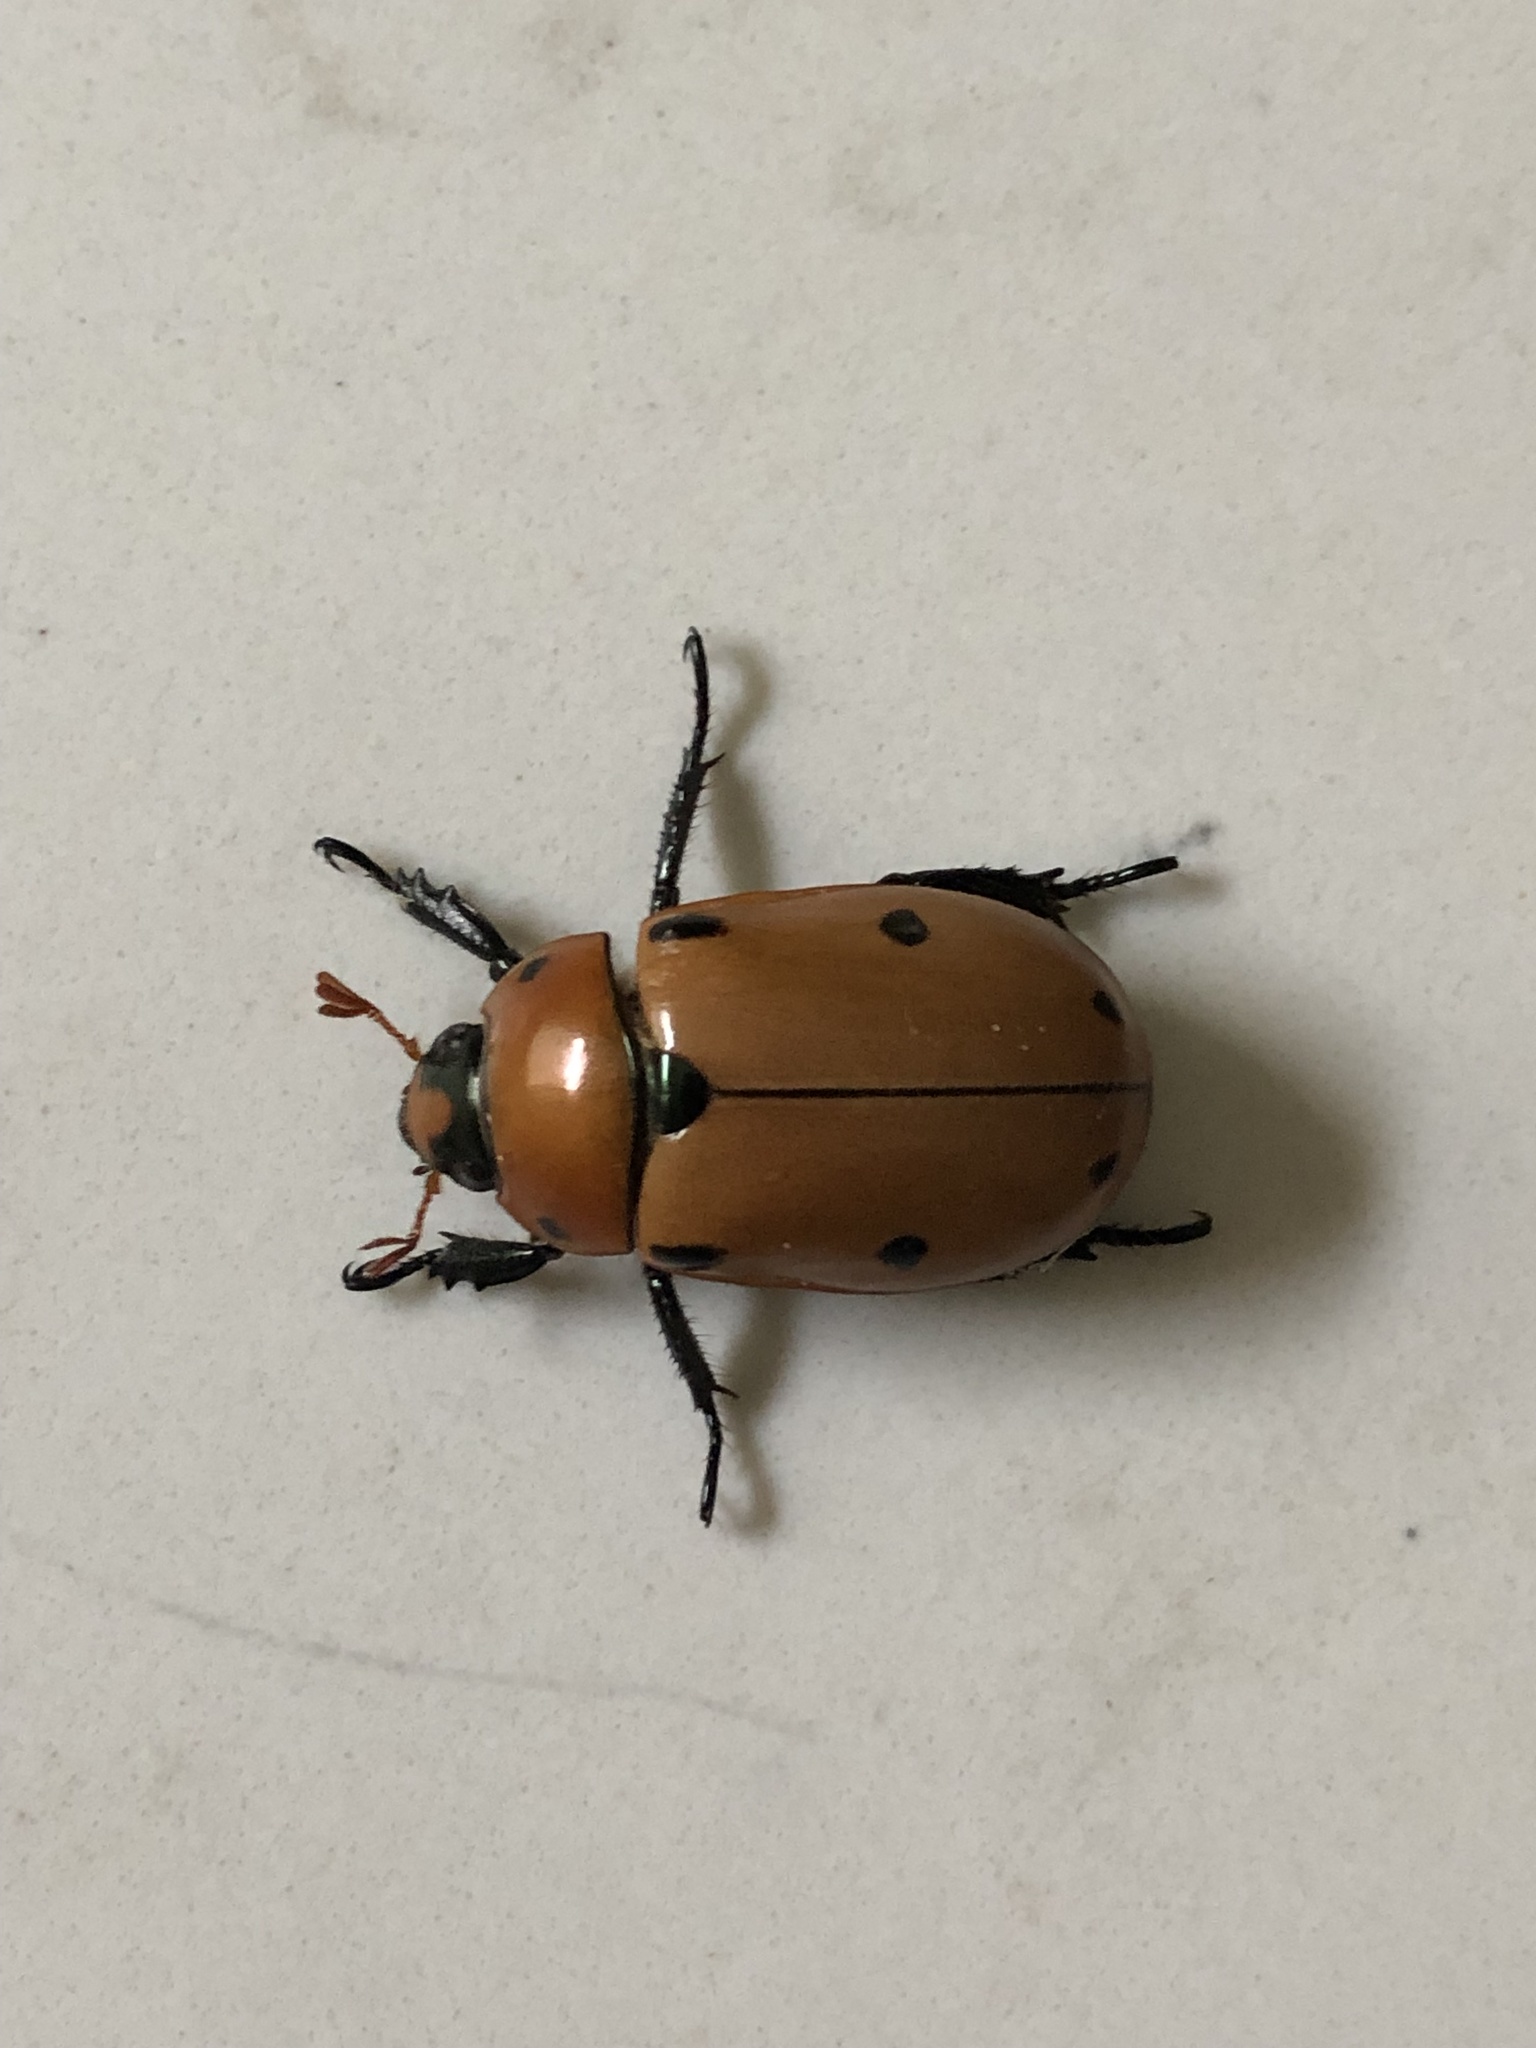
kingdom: Animalia
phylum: Arthropoda
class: Insecta
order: Coleoptera
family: Scarabaeidae
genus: Pelidnota
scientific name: Pelidnota punctata
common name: Grapevine beetle
